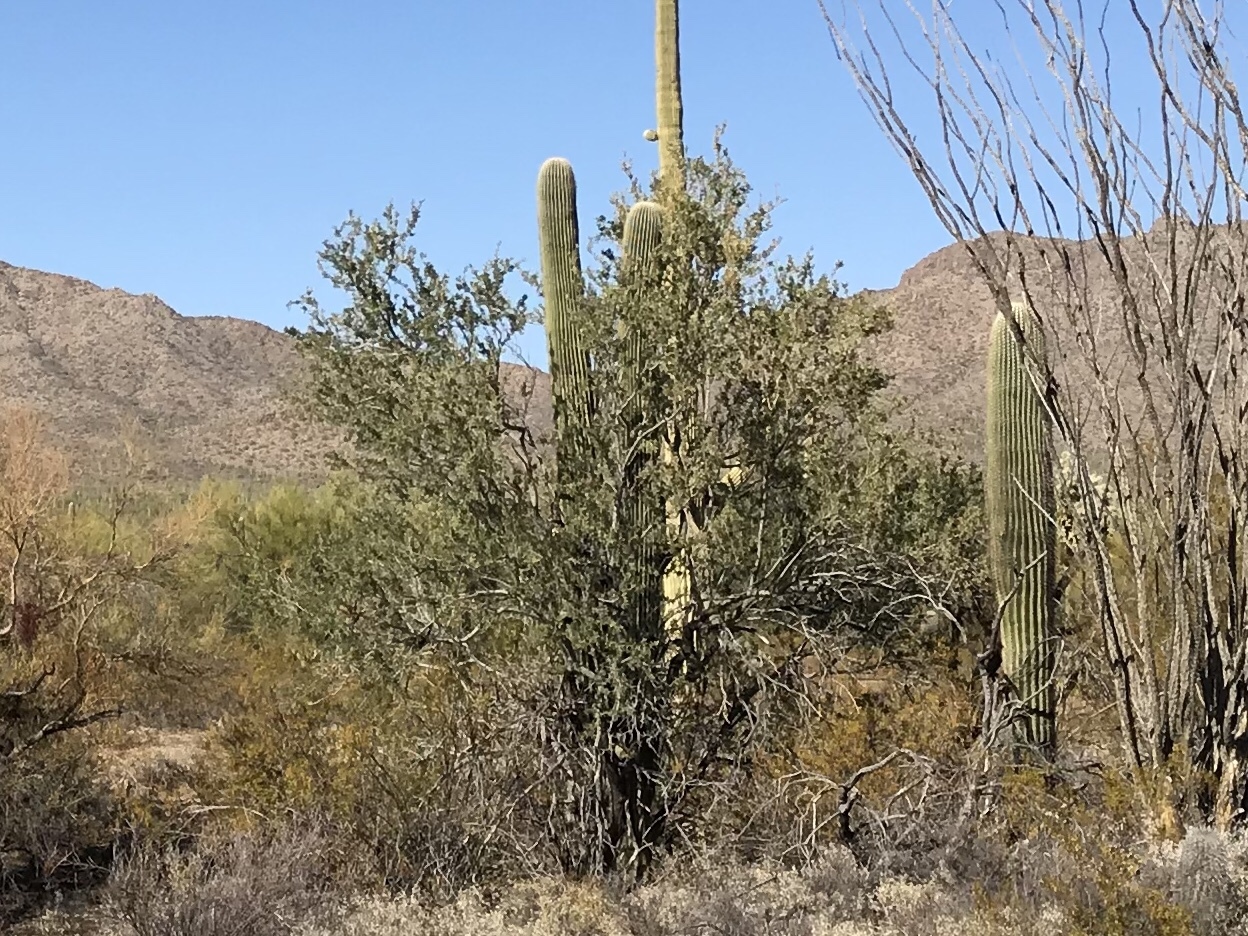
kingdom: Plantae
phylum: Tracheophyta
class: Magnoliopsida
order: Fabales
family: Fabaceae
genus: Olneya
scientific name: Olneya tesota
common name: Desert ironwood
